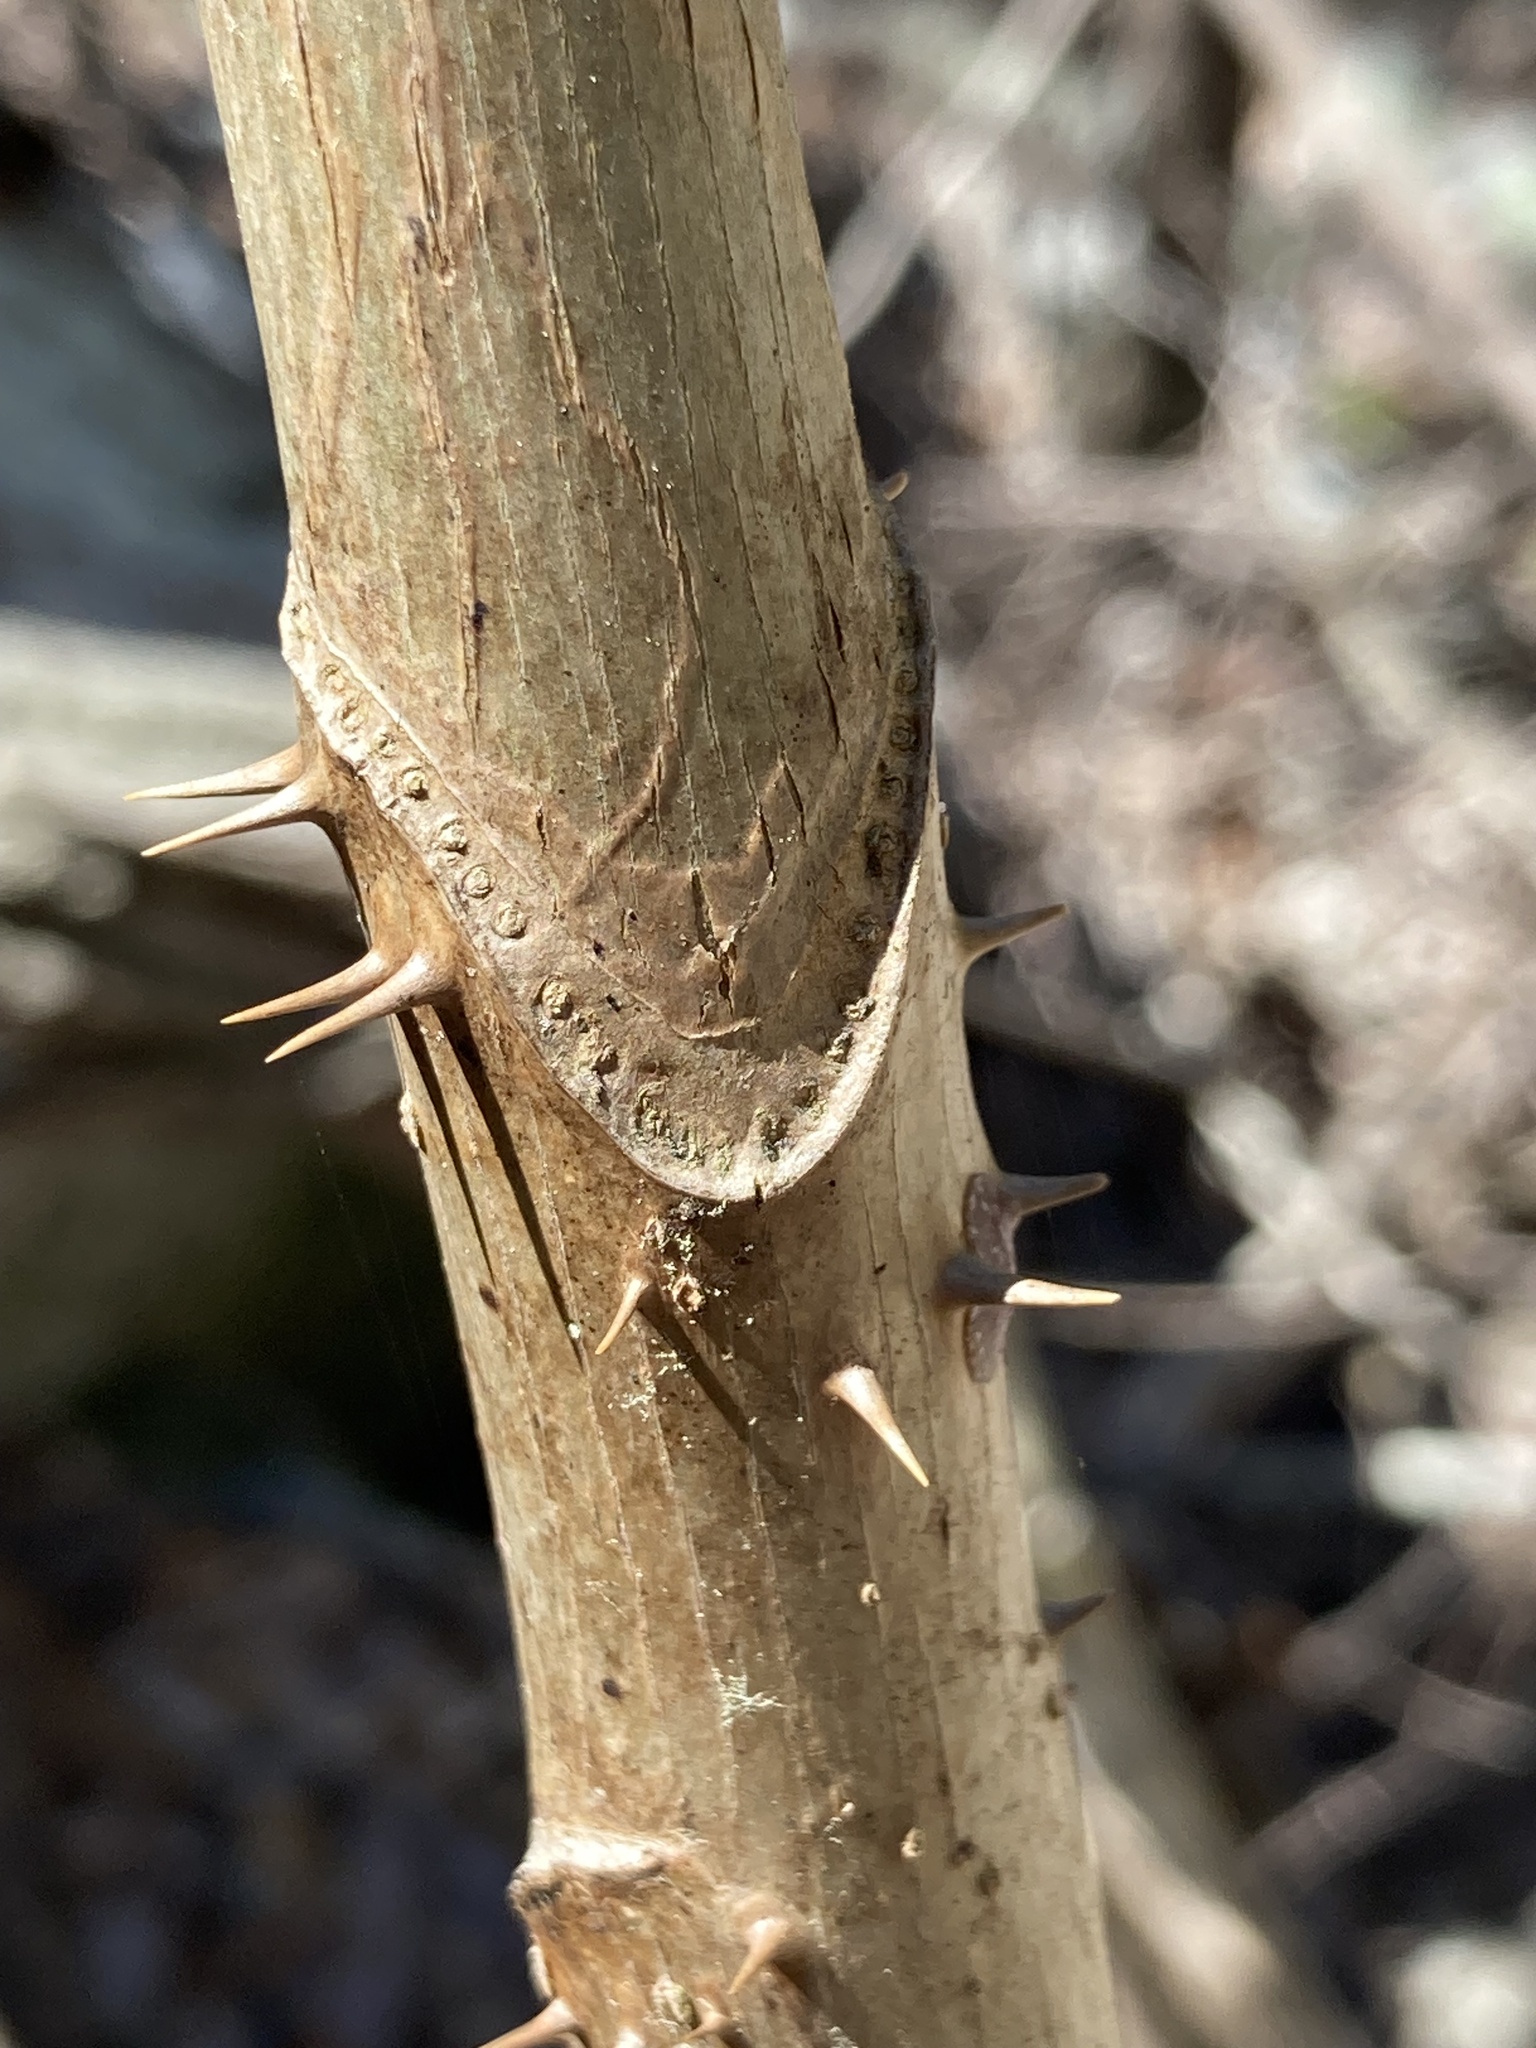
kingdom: Plantae
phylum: Tracheophyta
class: Magnoliopsida
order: Apiales
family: Araliaceae
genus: Aralia
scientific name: Aralia spinosa
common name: Hercules'-club
